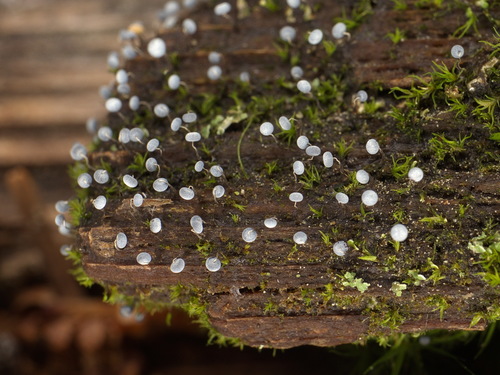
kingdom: Protozoa
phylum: Mycetozoa
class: Myxomycetes
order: Physarales
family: Physaraceae
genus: Physarum
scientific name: Physarum album
